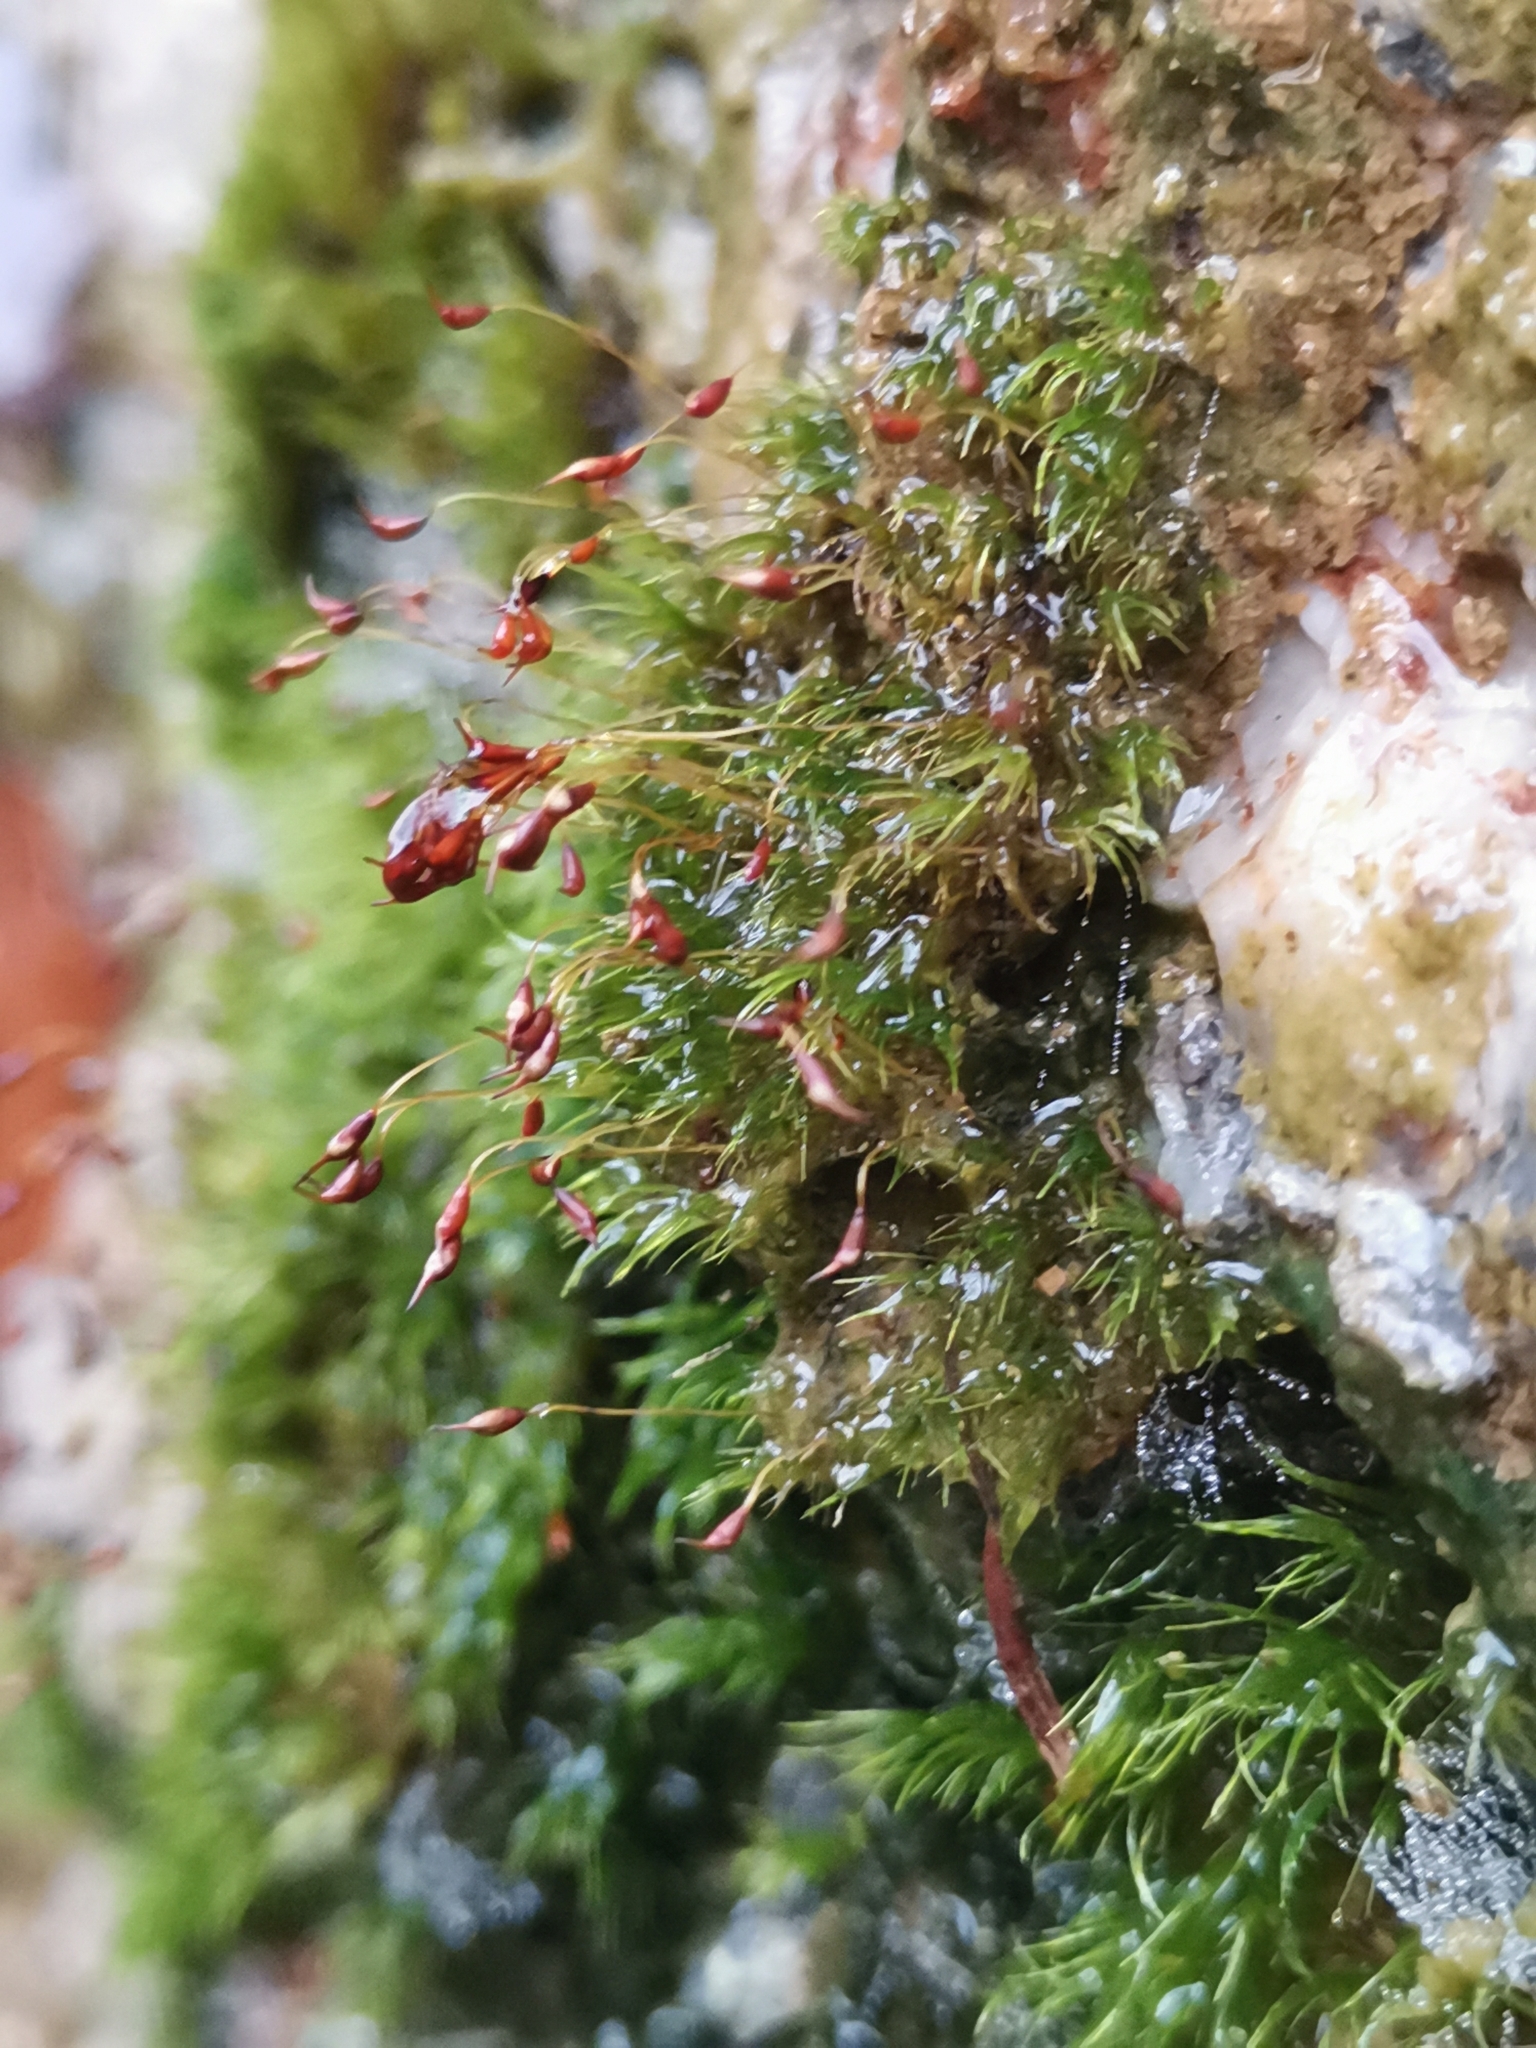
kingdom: Plantae
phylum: Bryophyta
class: Bryopsida
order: Dicranales
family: Dicranellaceae
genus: Dicranella
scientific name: Dicranella heteromalla
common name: Silky forklet moss
